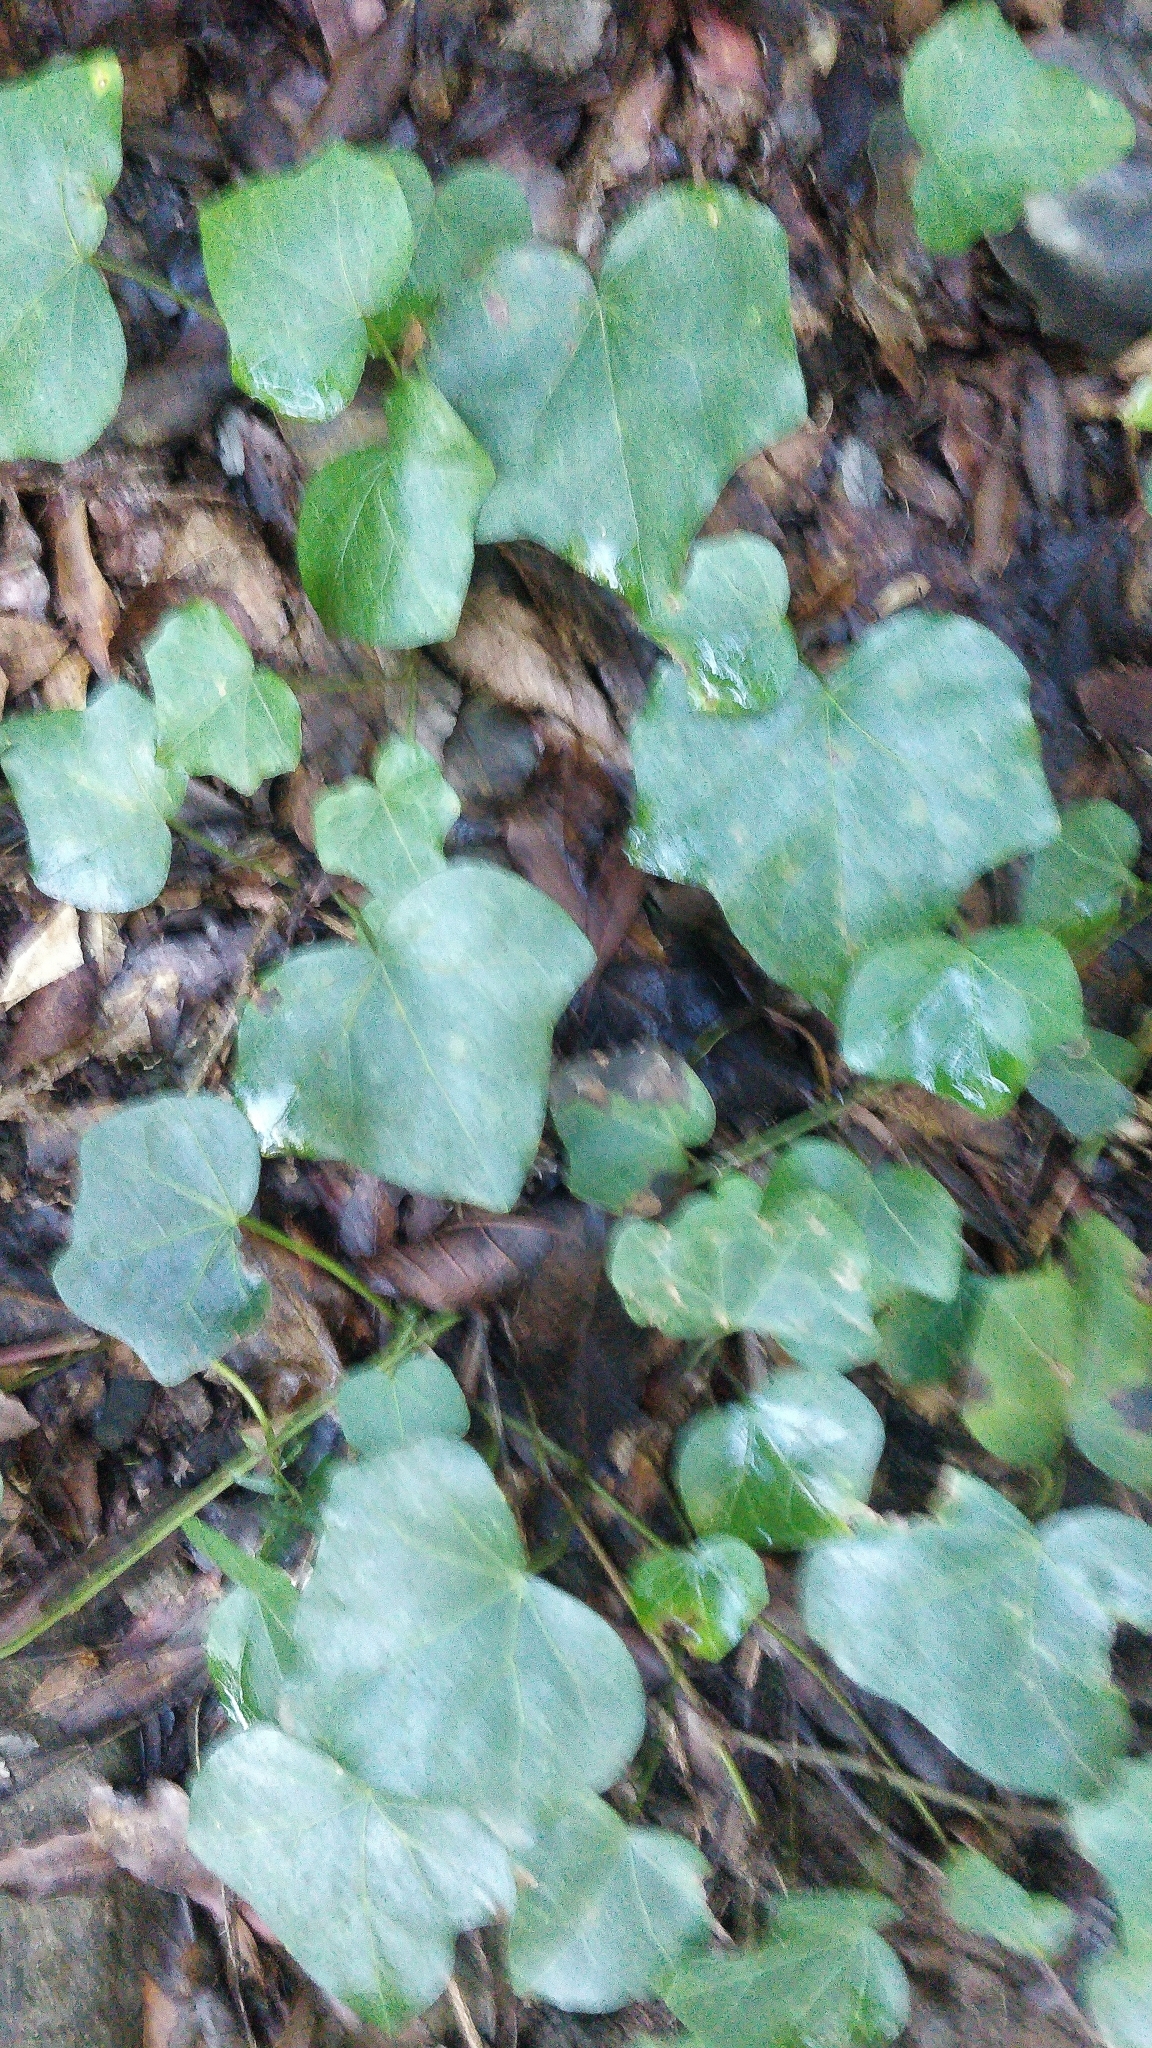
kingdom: Plantae
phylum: Tracheophyta
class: Magnoliopsida
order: Apiales
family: Araliaceae
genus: Hedera
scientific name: Hedera canariensis
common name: Madeira ivy
